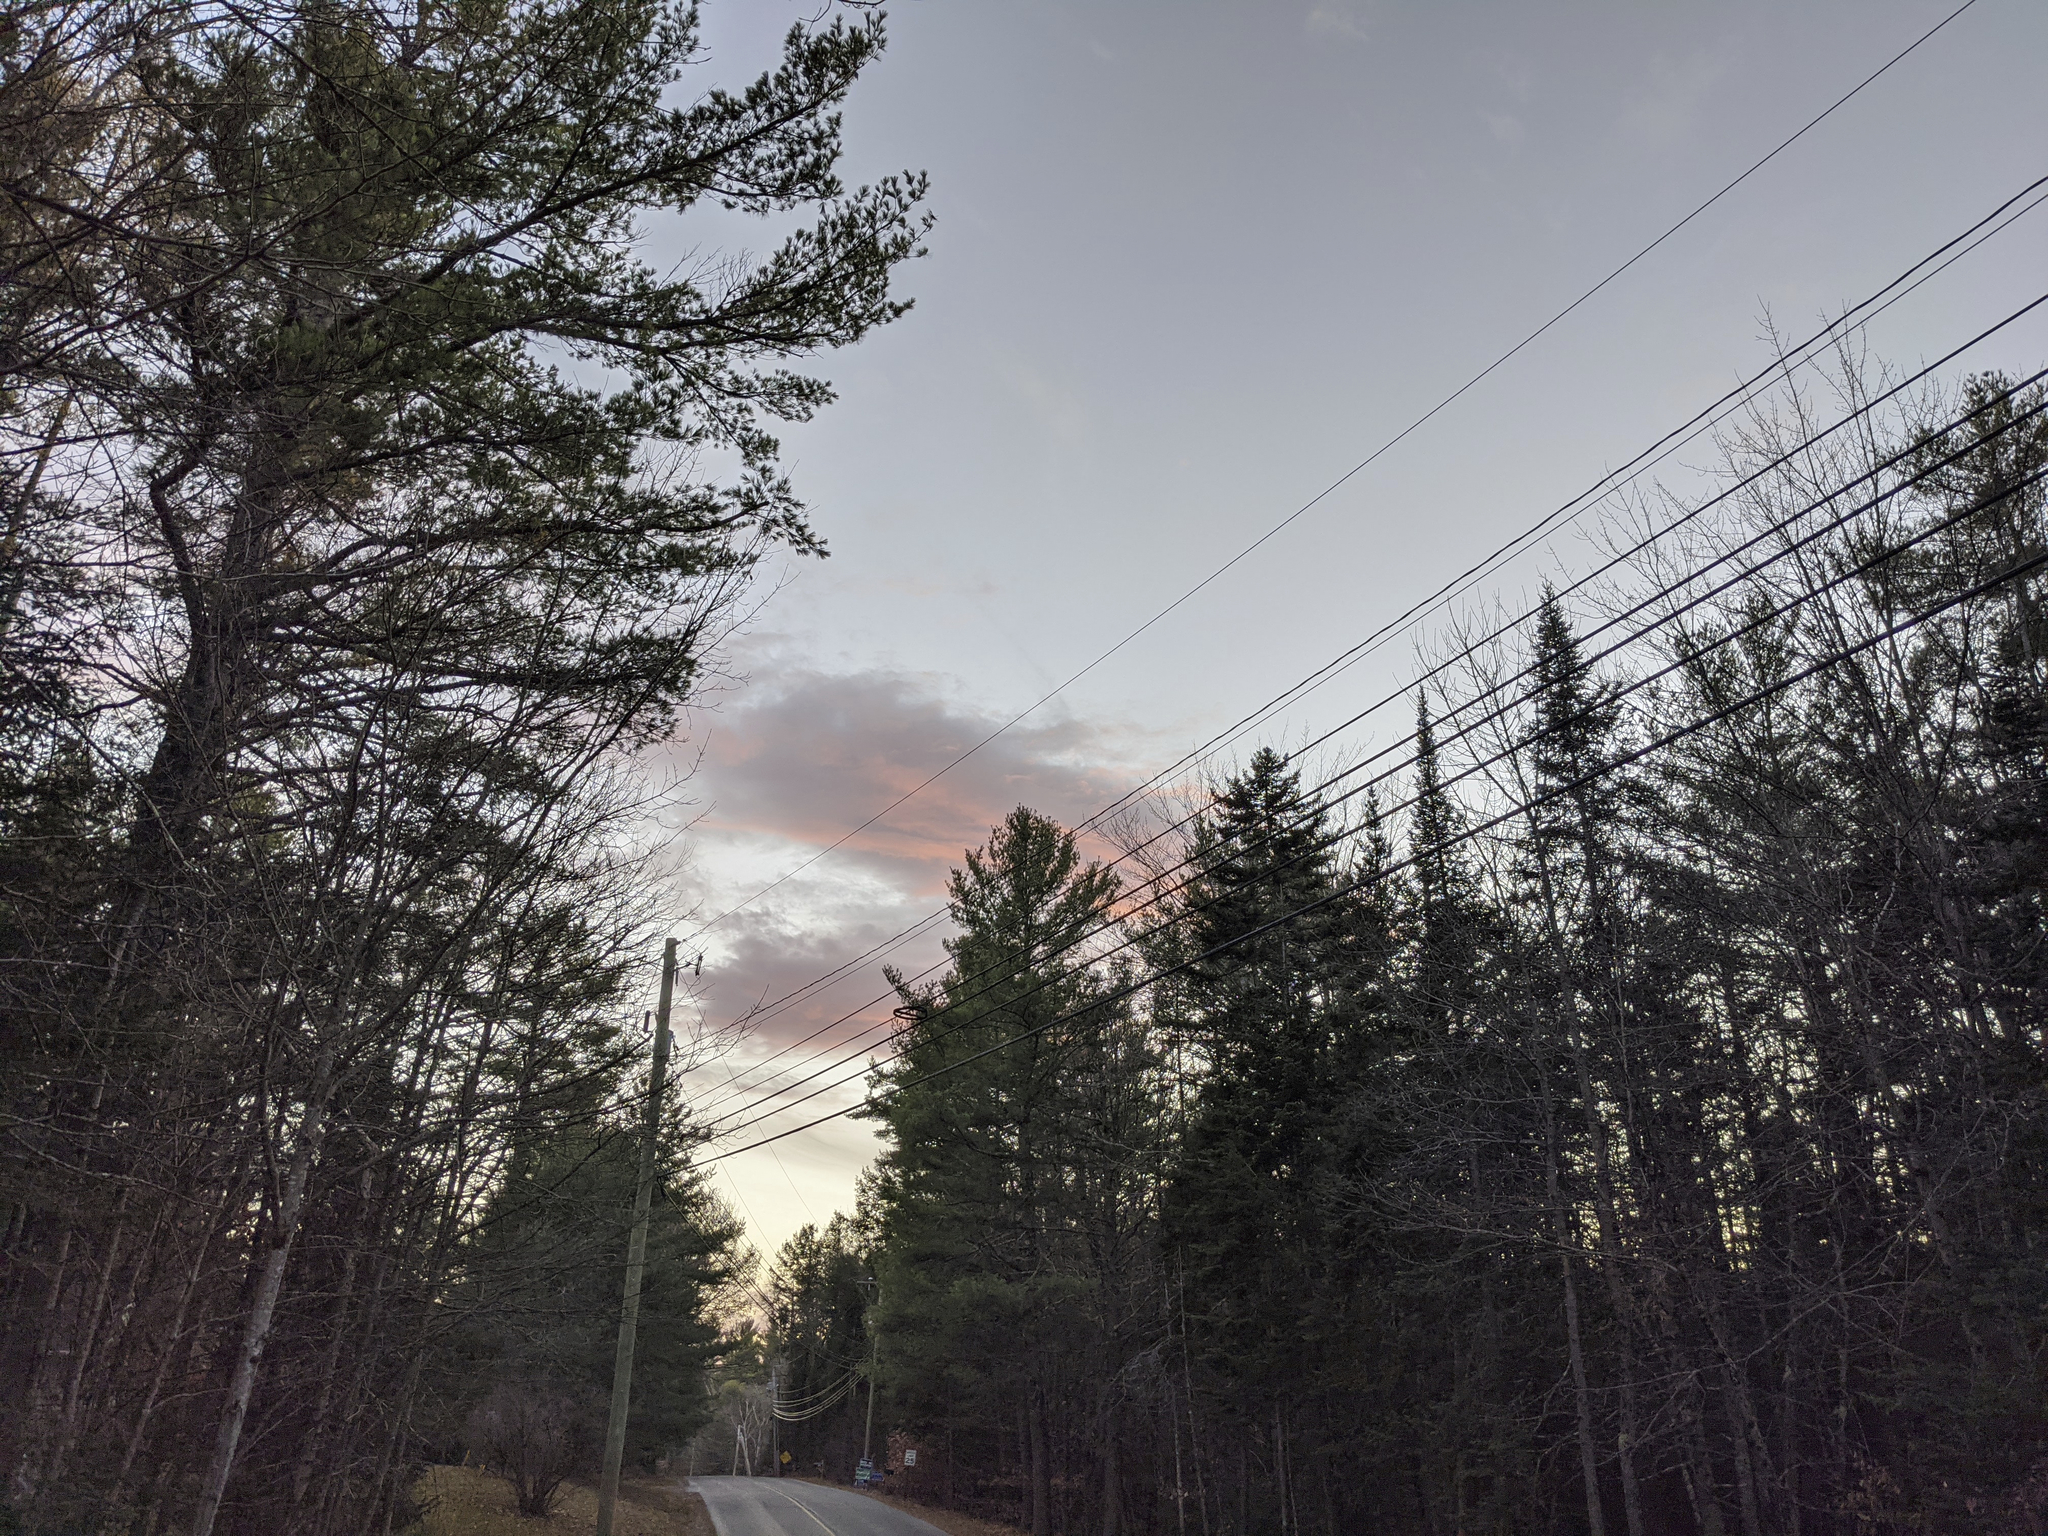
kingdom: Plantae
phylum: Tracheophyta
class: Pinopsida
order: Pinales
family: Pinaceae
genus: Pinus
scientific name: Pinus strobus
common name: Weymouth pine
